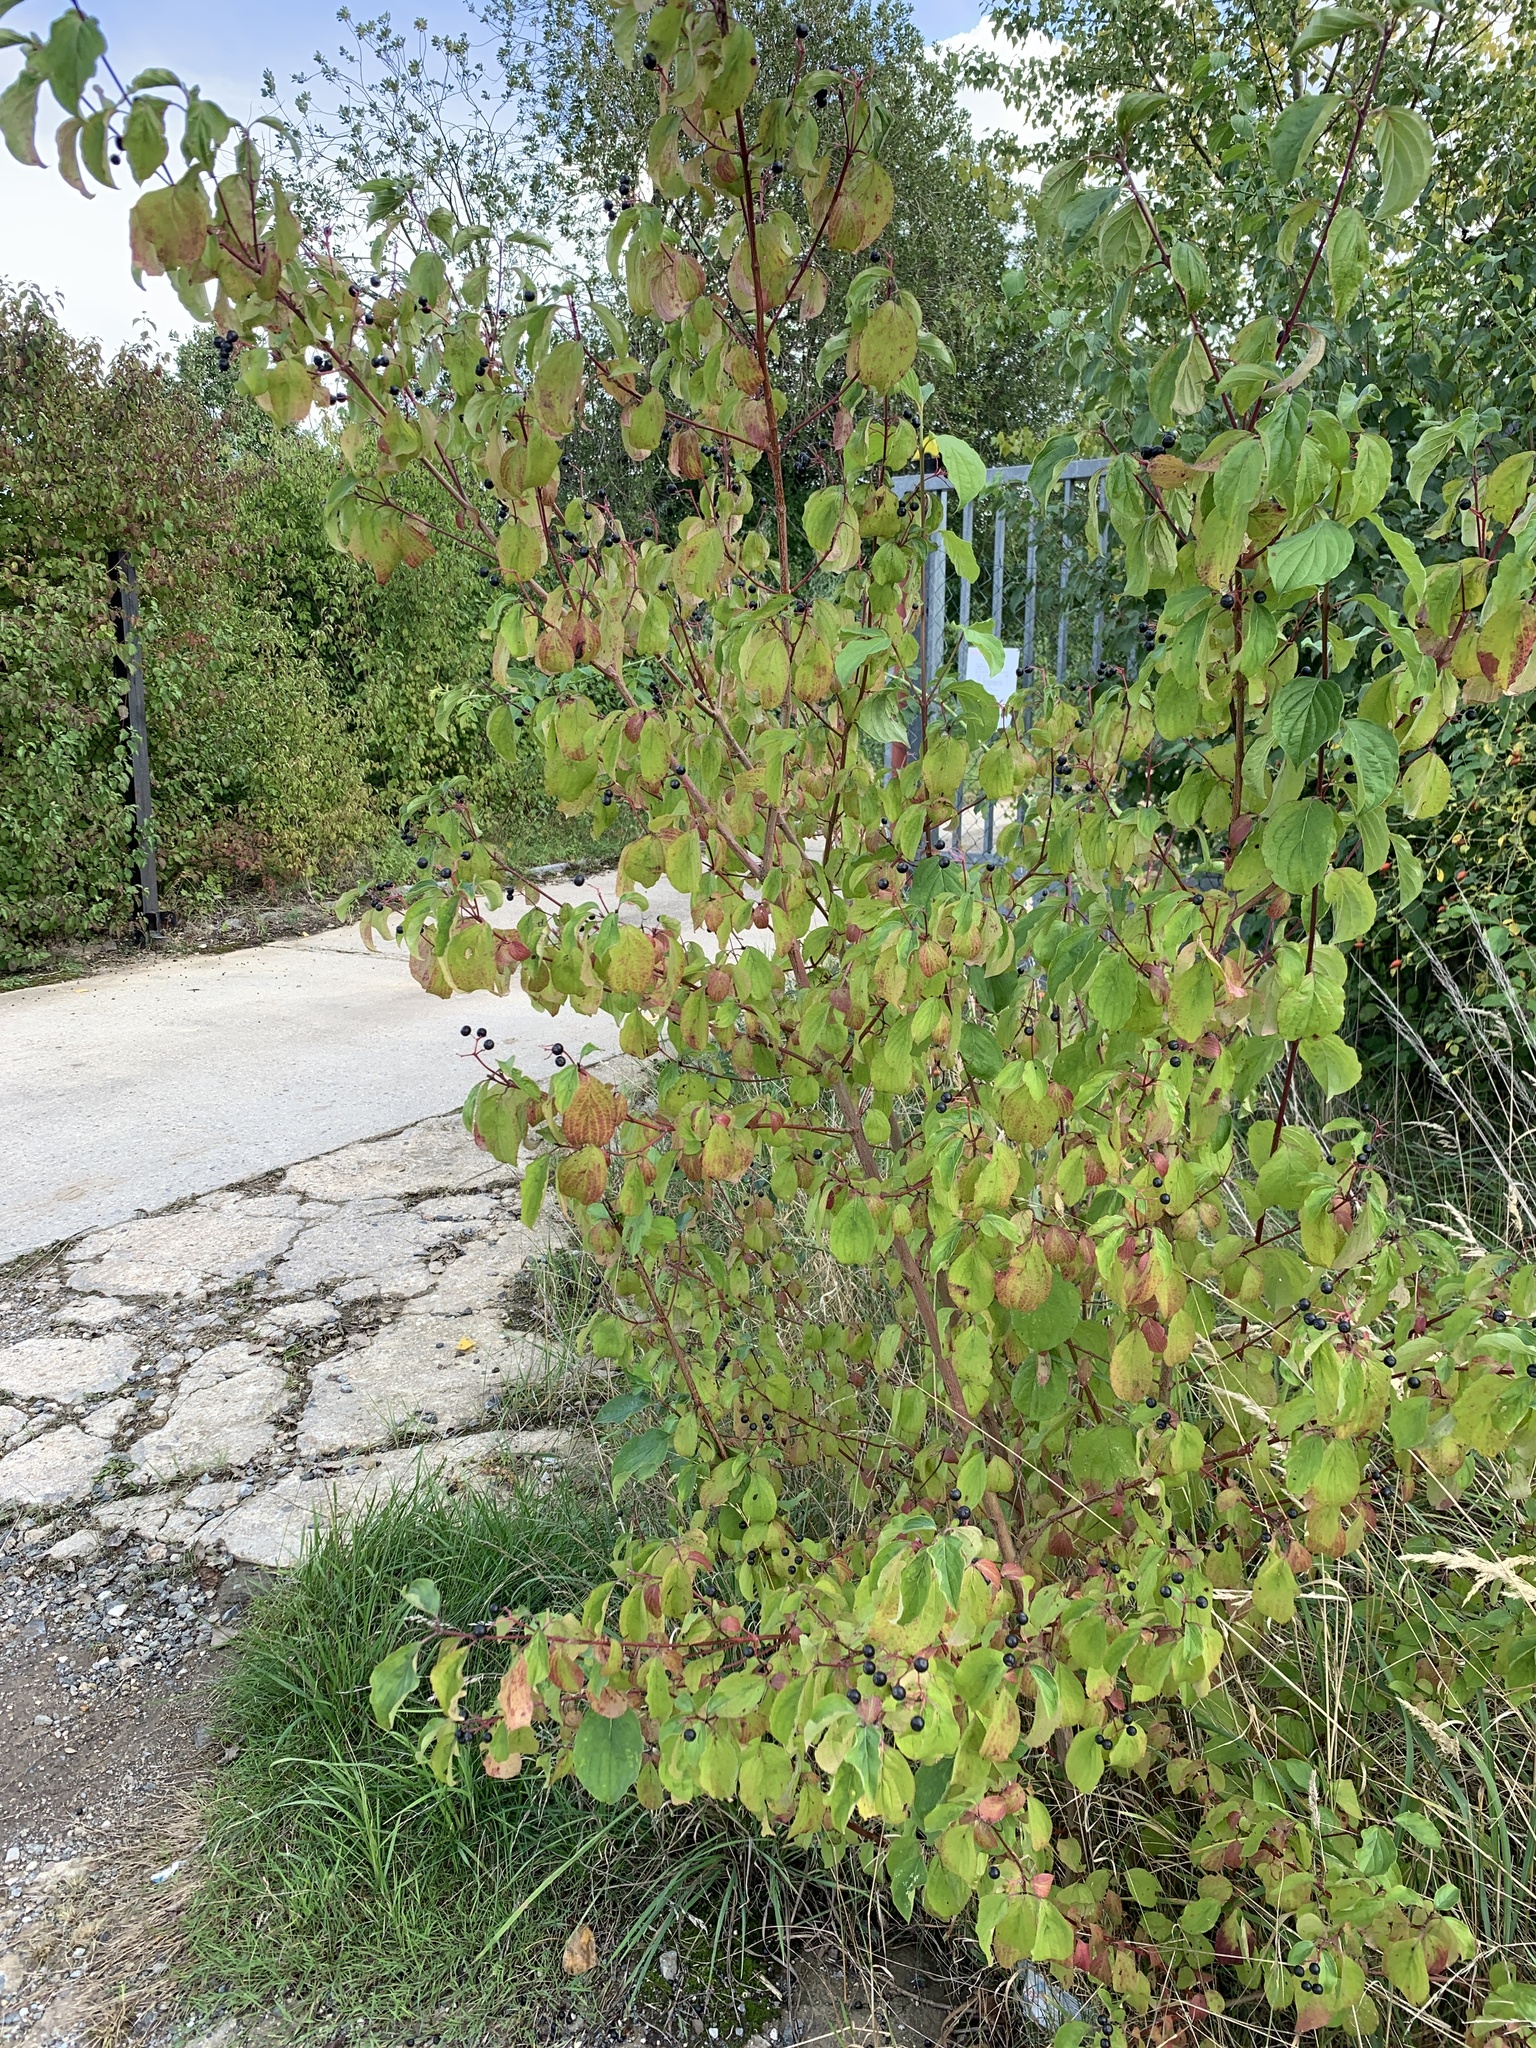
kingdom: Plantae
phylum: Tracheophyta
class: Magnoliopsida
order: Cornales
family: Cornaceae
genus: Cornus
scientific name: Cornus sanguinea
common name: Dogwood
